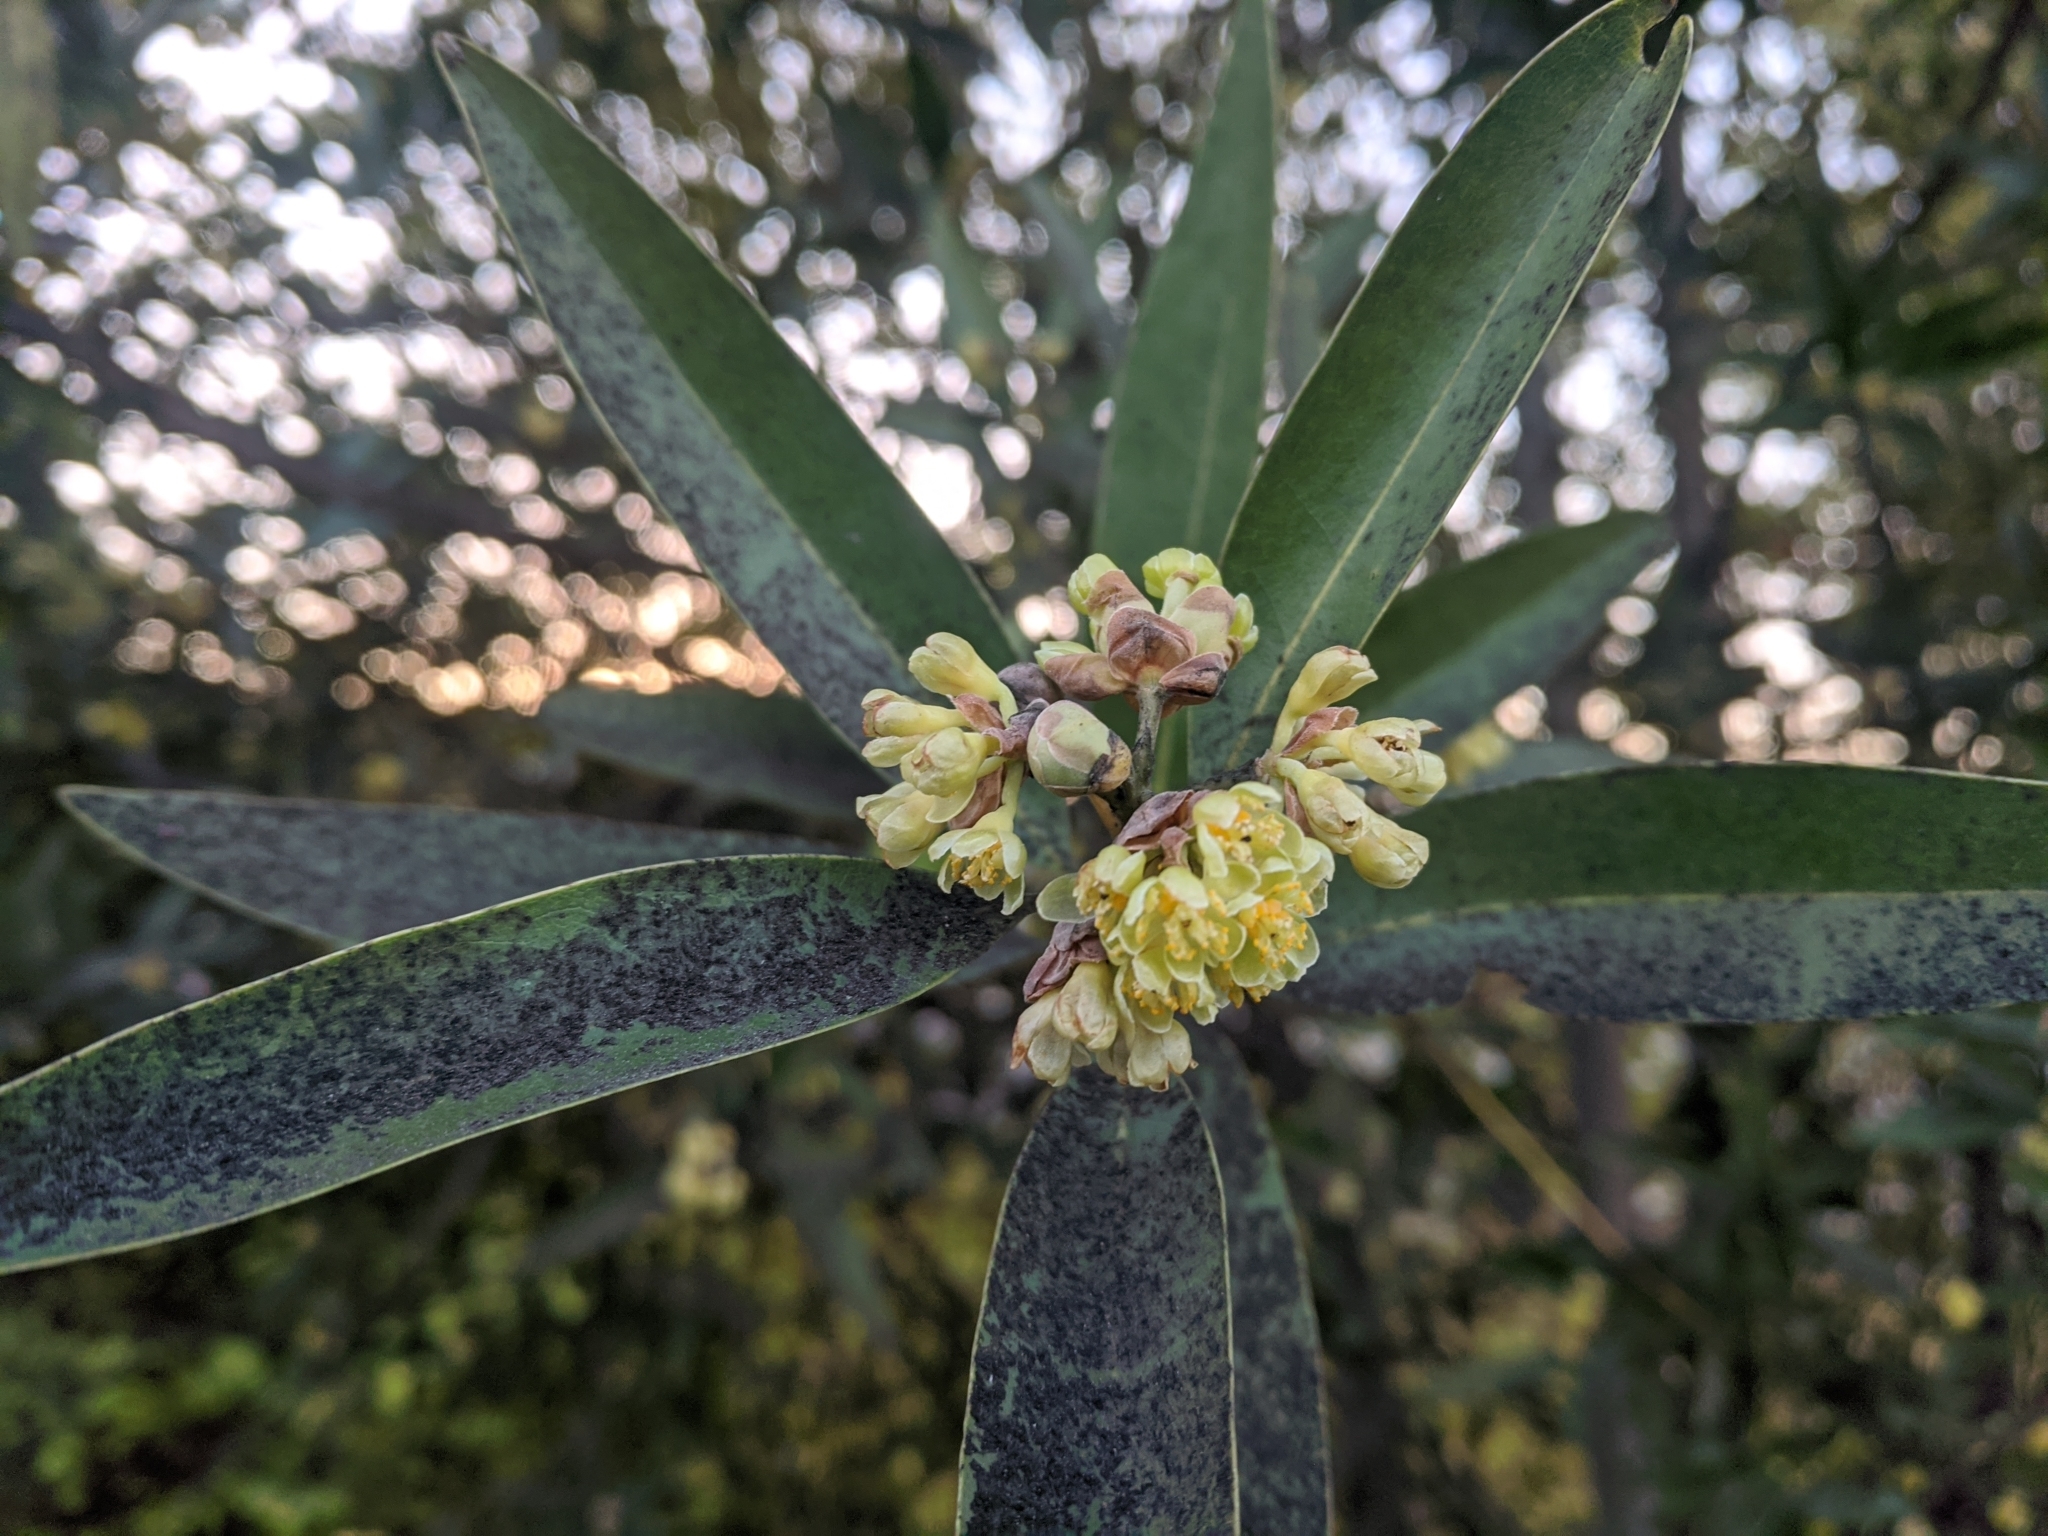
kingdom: Plantae
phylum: Tracheophyta
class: Magnoliopsida
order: Laurales
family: Lauraceae
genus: Umbellularia
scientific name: Umbellularia californica
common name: California bay
